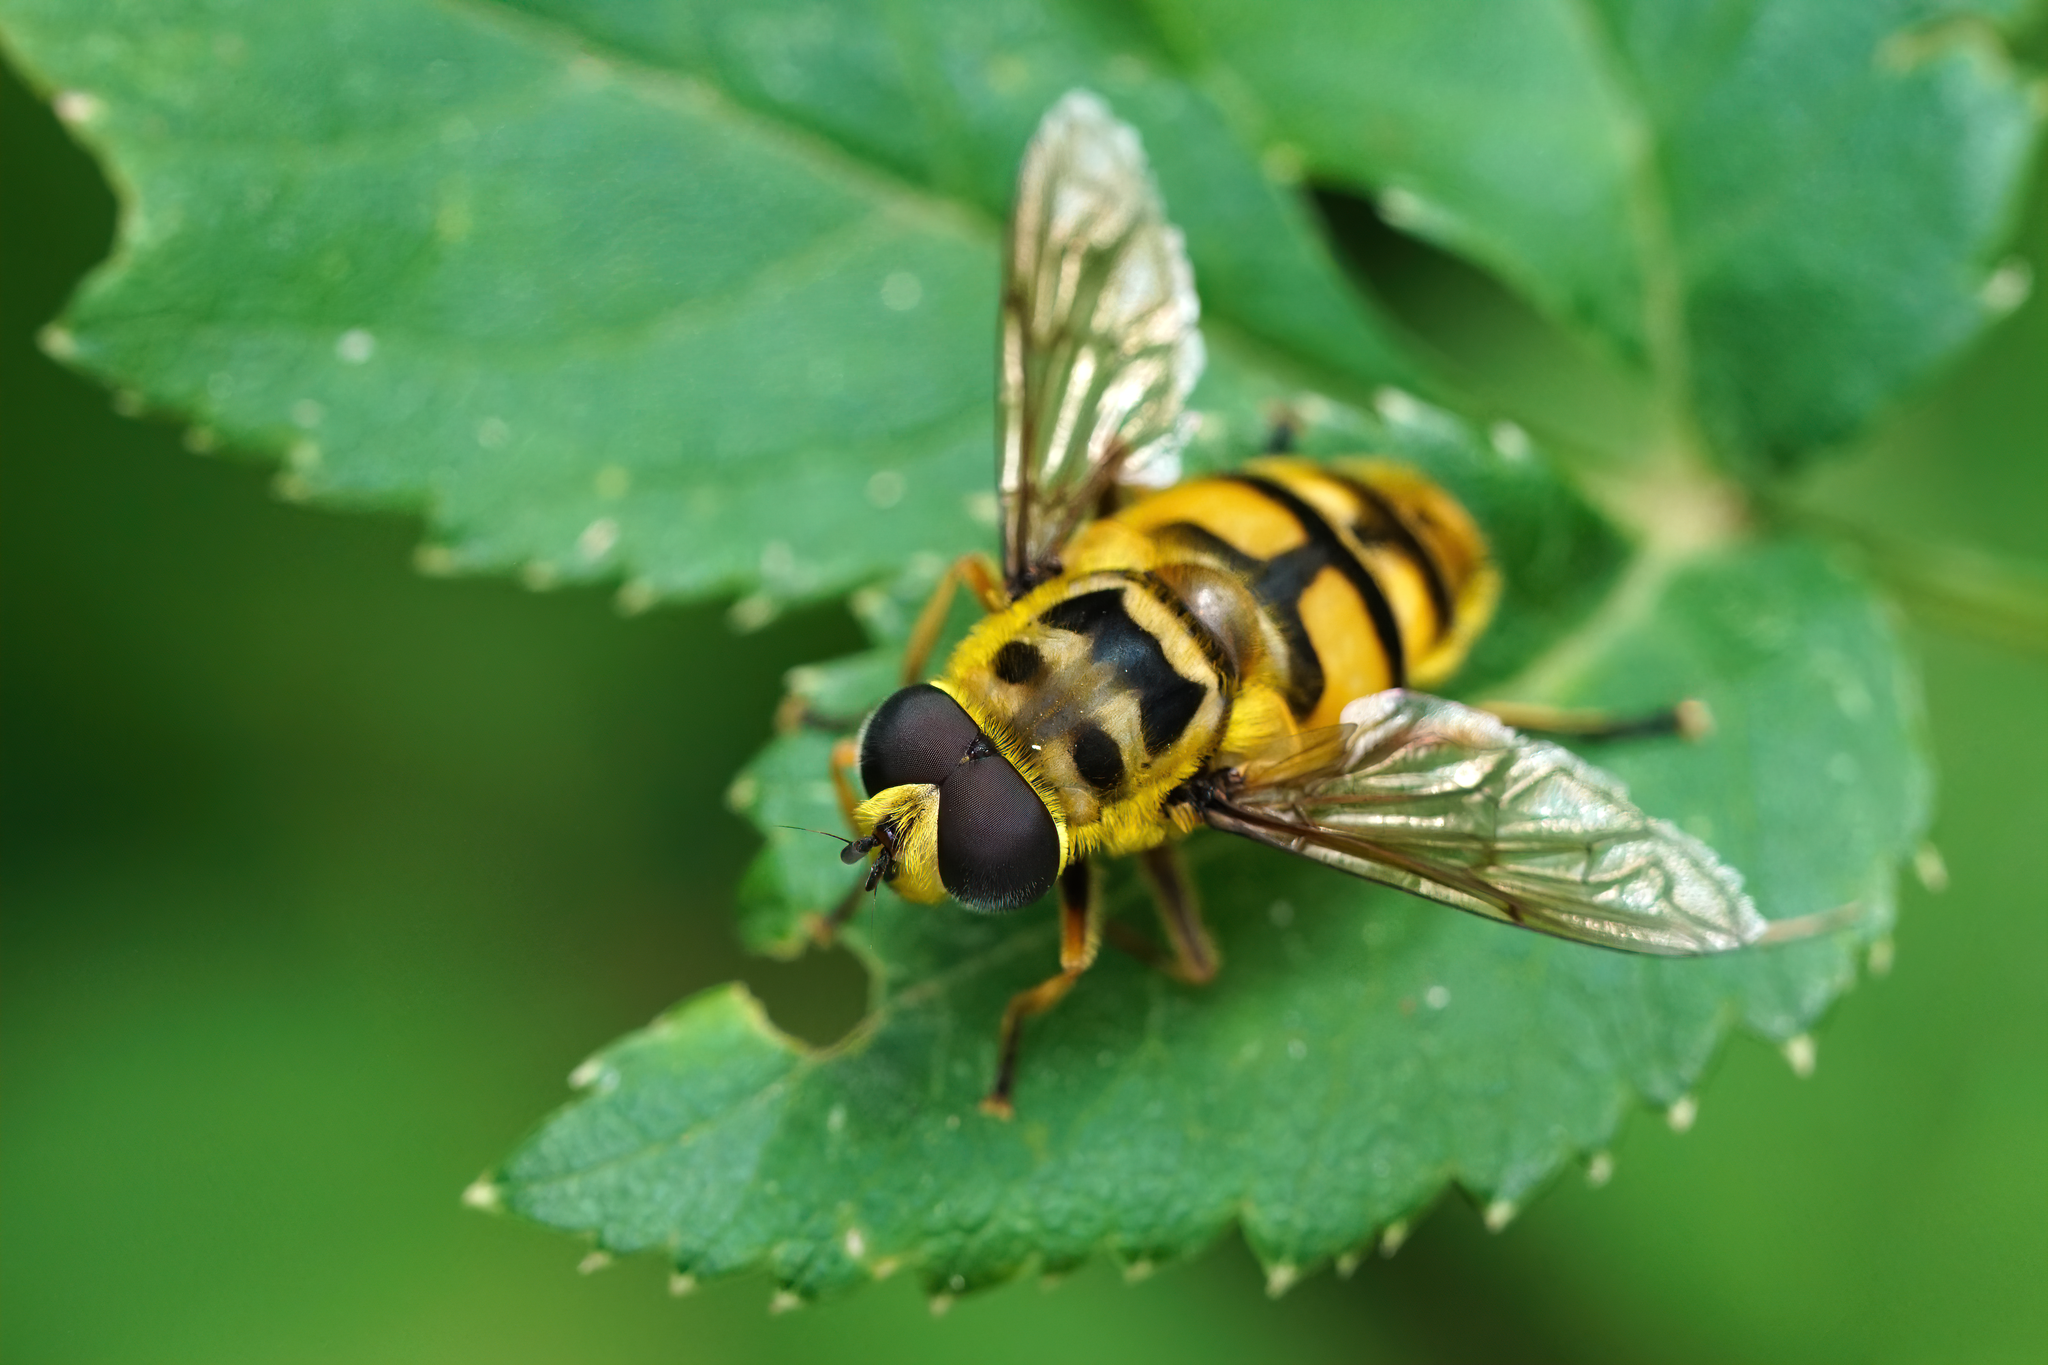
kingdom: Animalia
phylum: Arthropoda
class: Insecta
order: Diptera
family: Syrphidae
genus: Myathropa
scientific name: Myathropa florea
